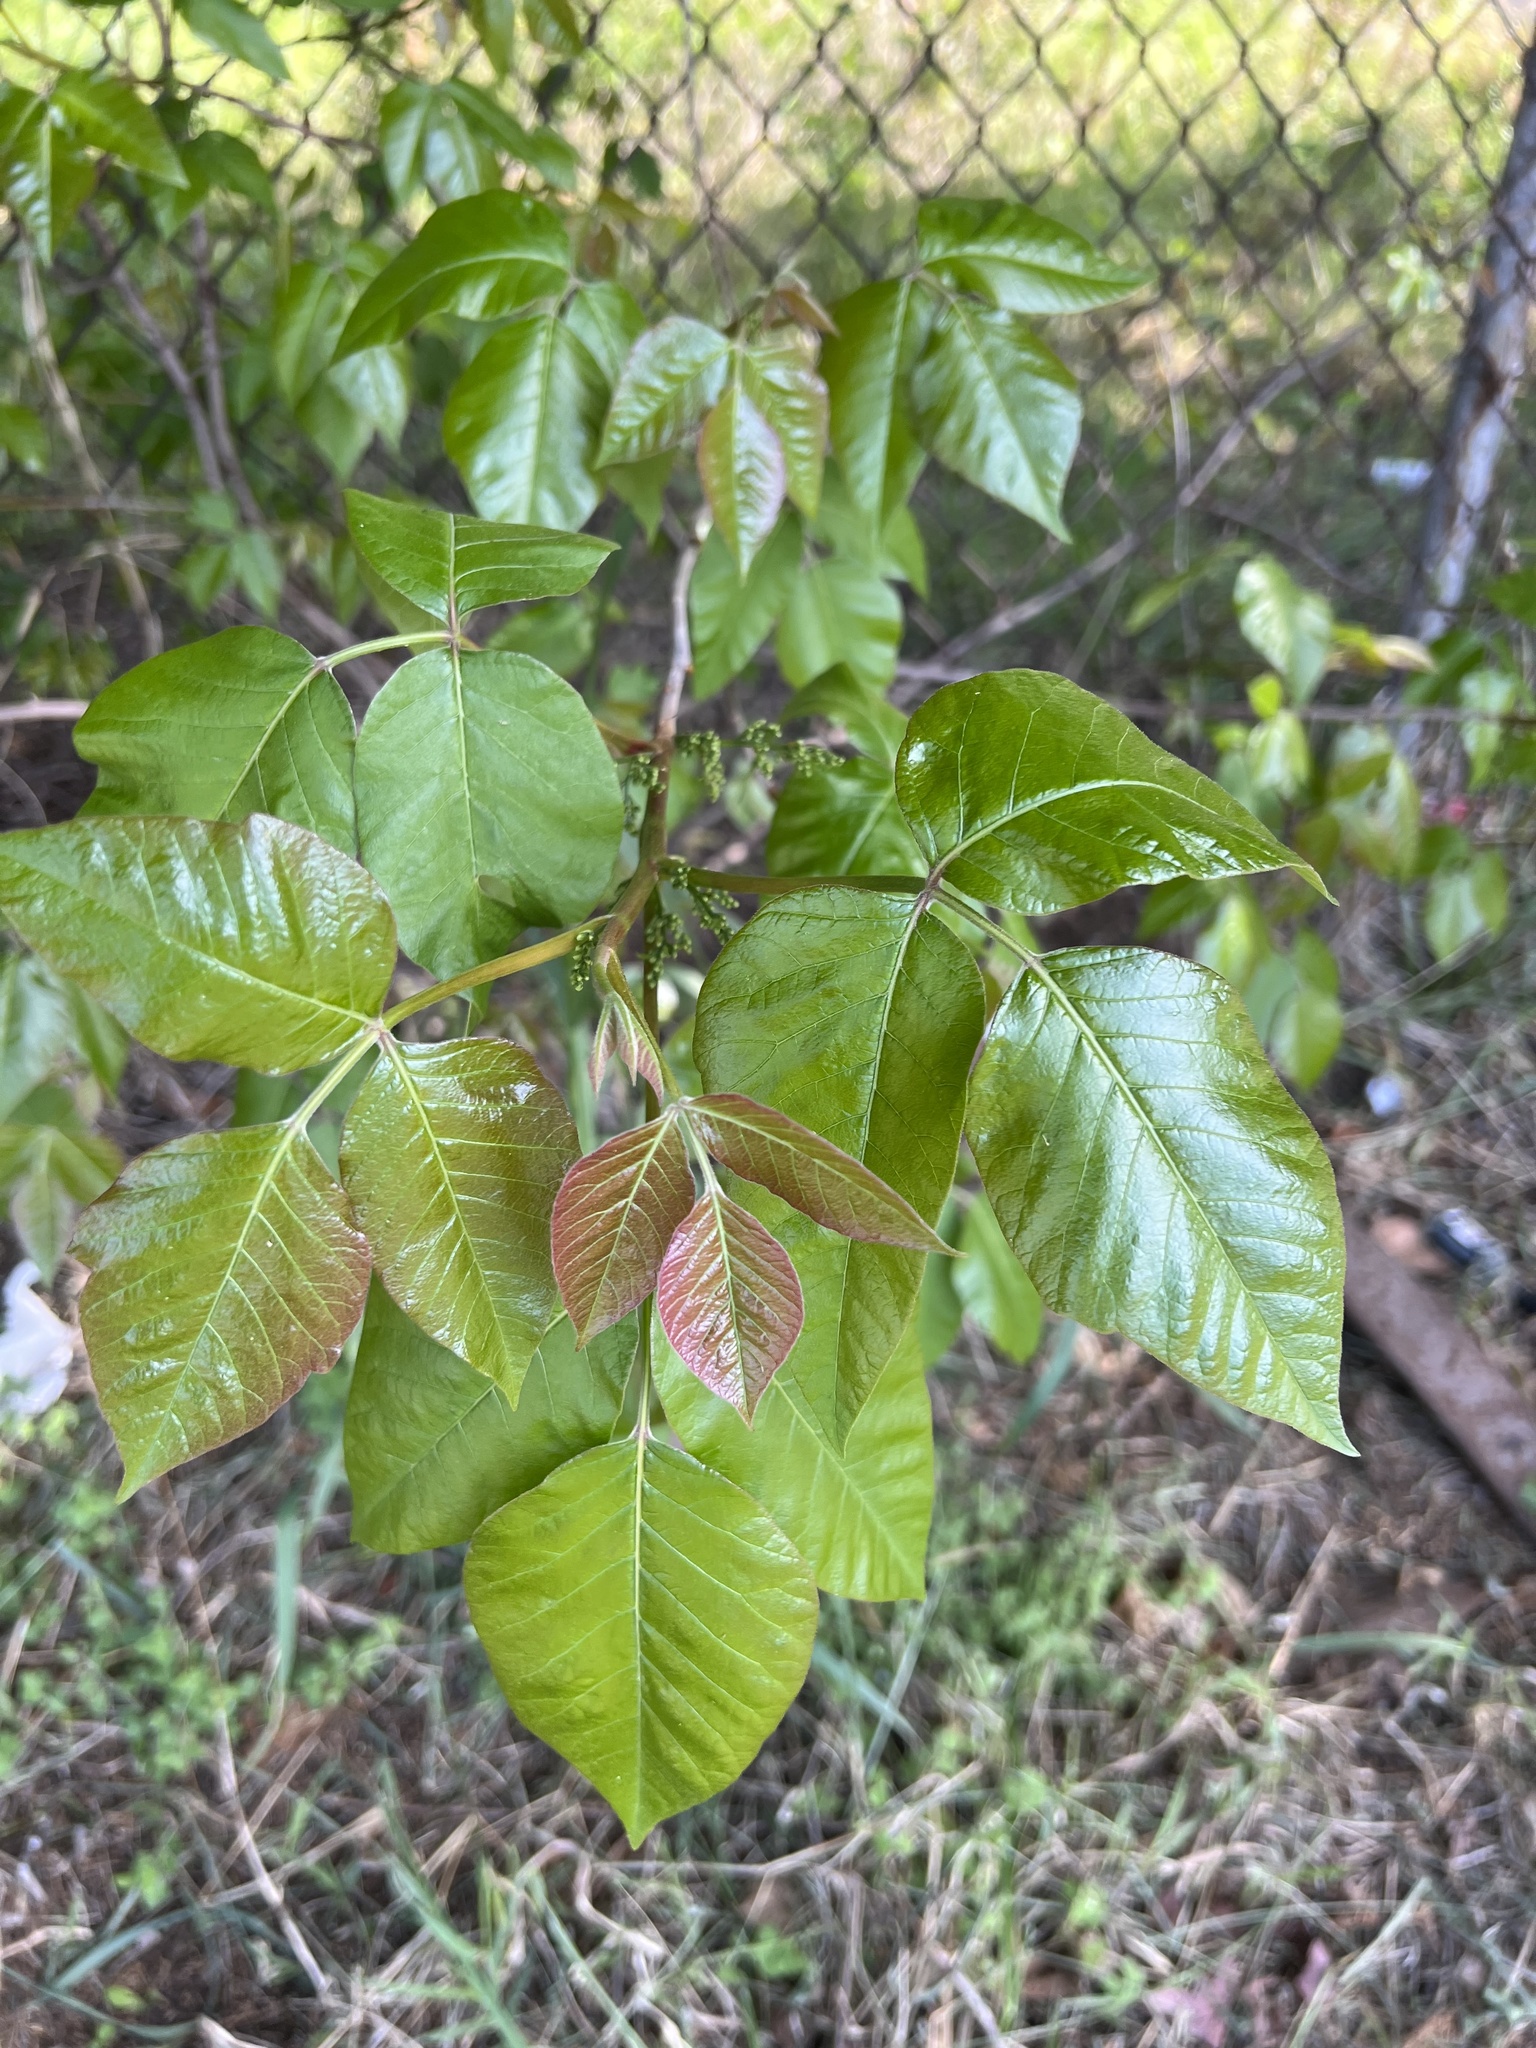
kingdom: Plantae
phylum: Tracheophyta
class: Magnoliopsida
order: Sapindales
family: Anacardiaceae
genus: Toxicodendron
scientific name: Toxicodendron radicans
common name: Poison ivy
